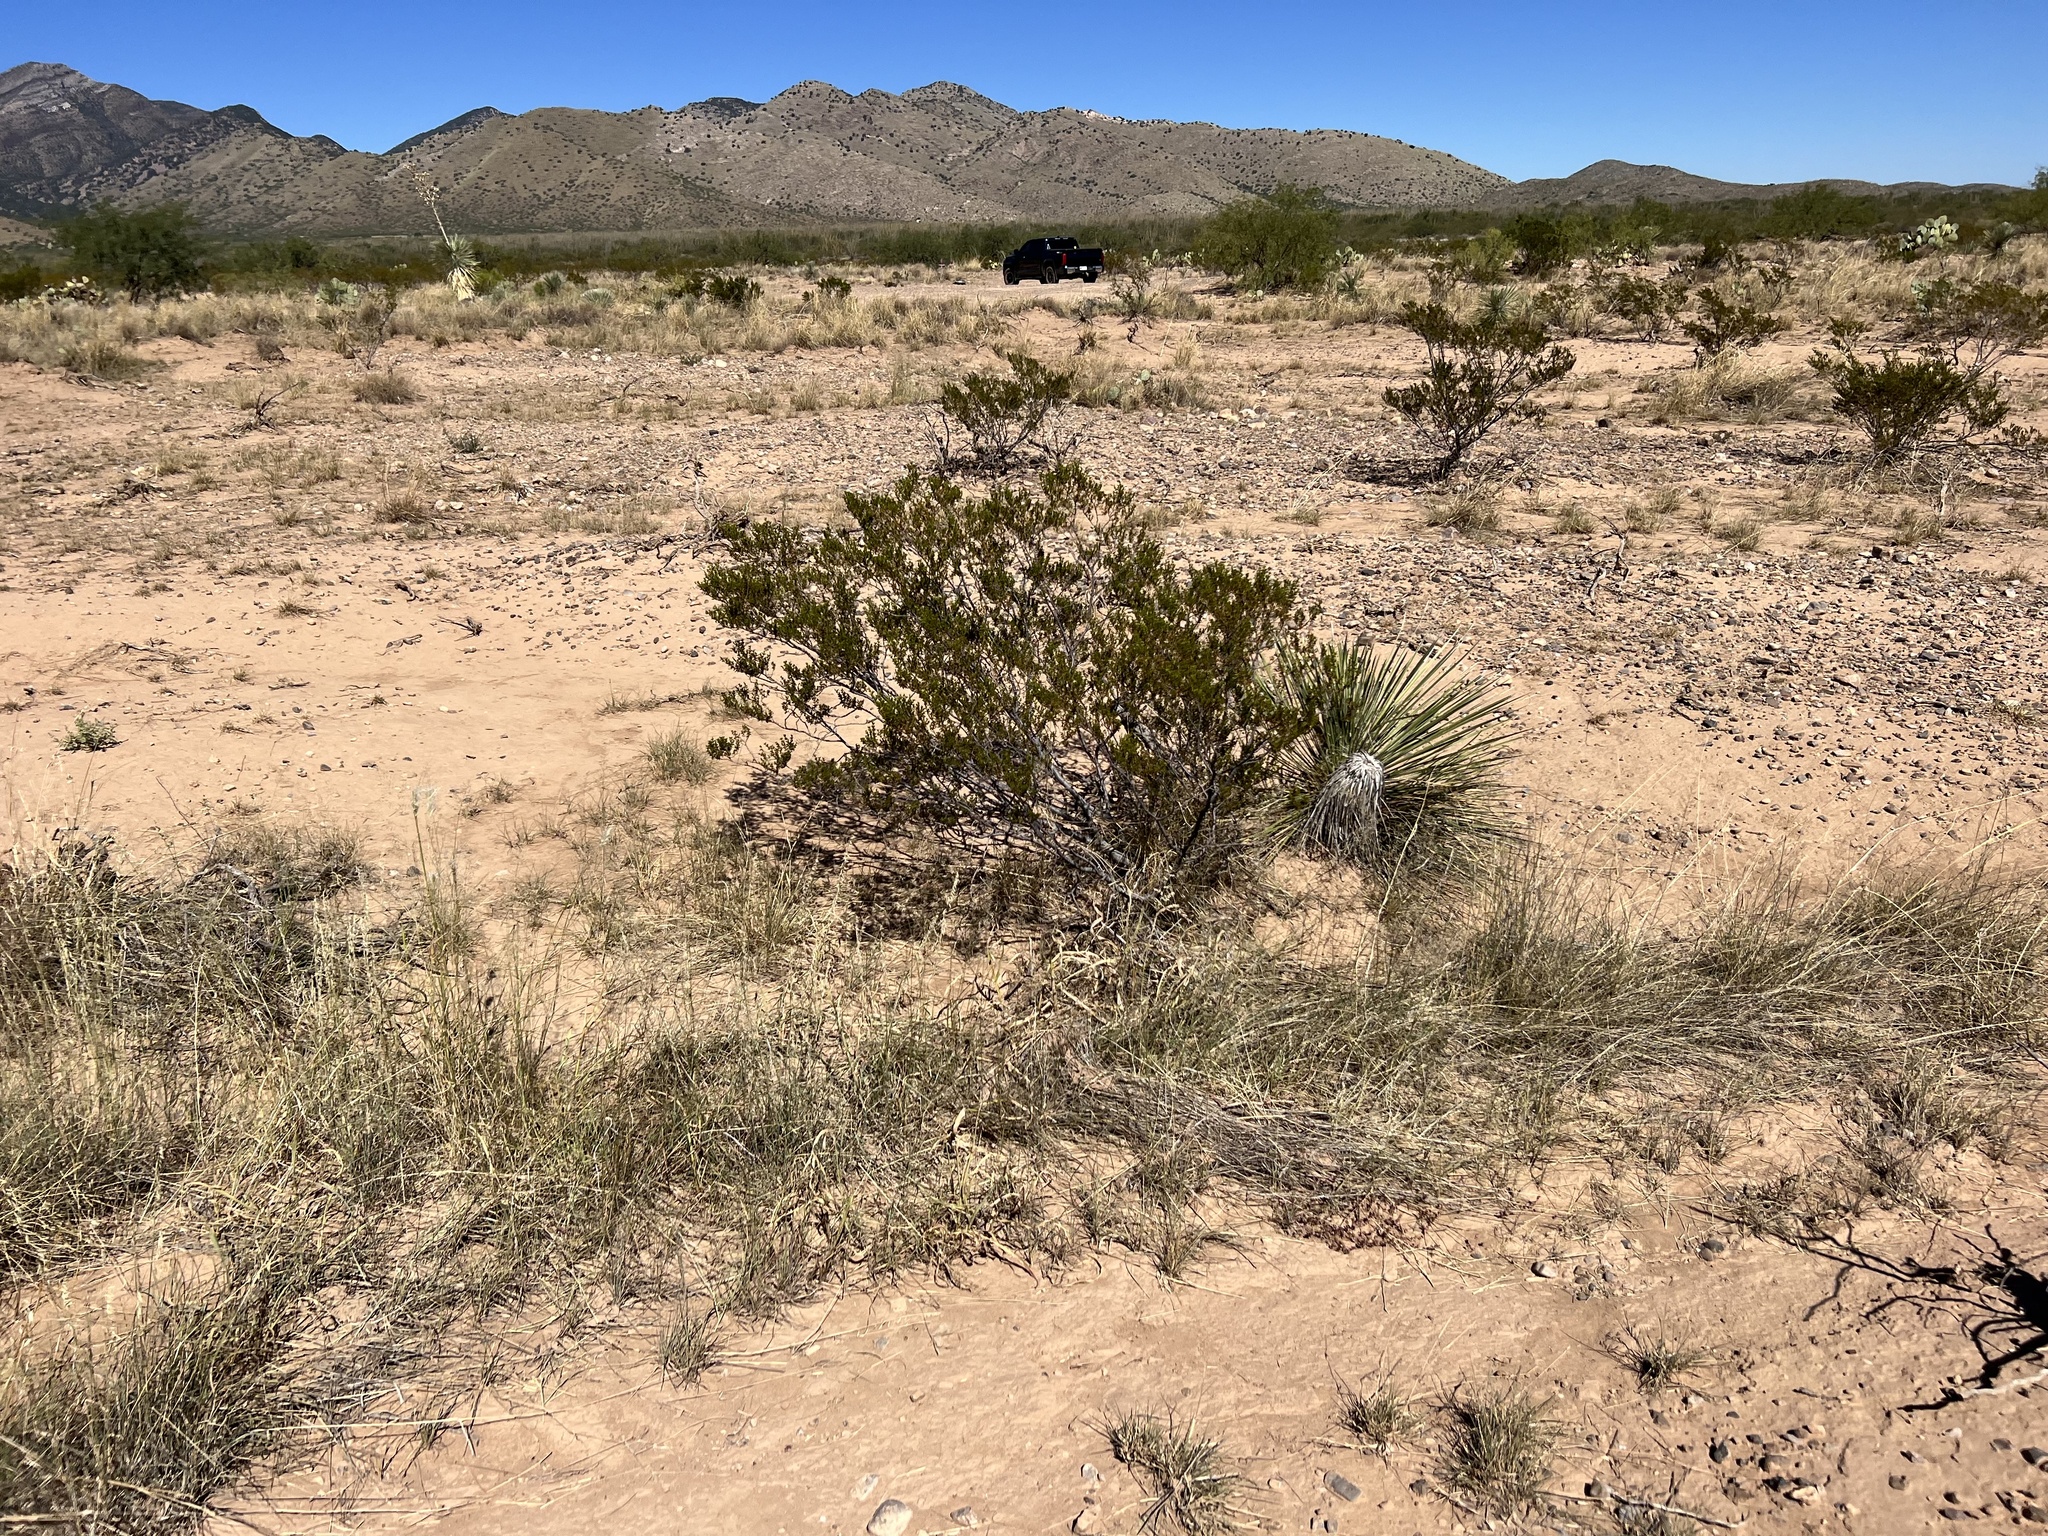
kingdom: Plantae
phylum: Tracheophyta
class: Magnoliopsida
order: Zygophyllales
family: Zygophyllaceae
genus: Larrea
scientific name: Larrea tridentata
